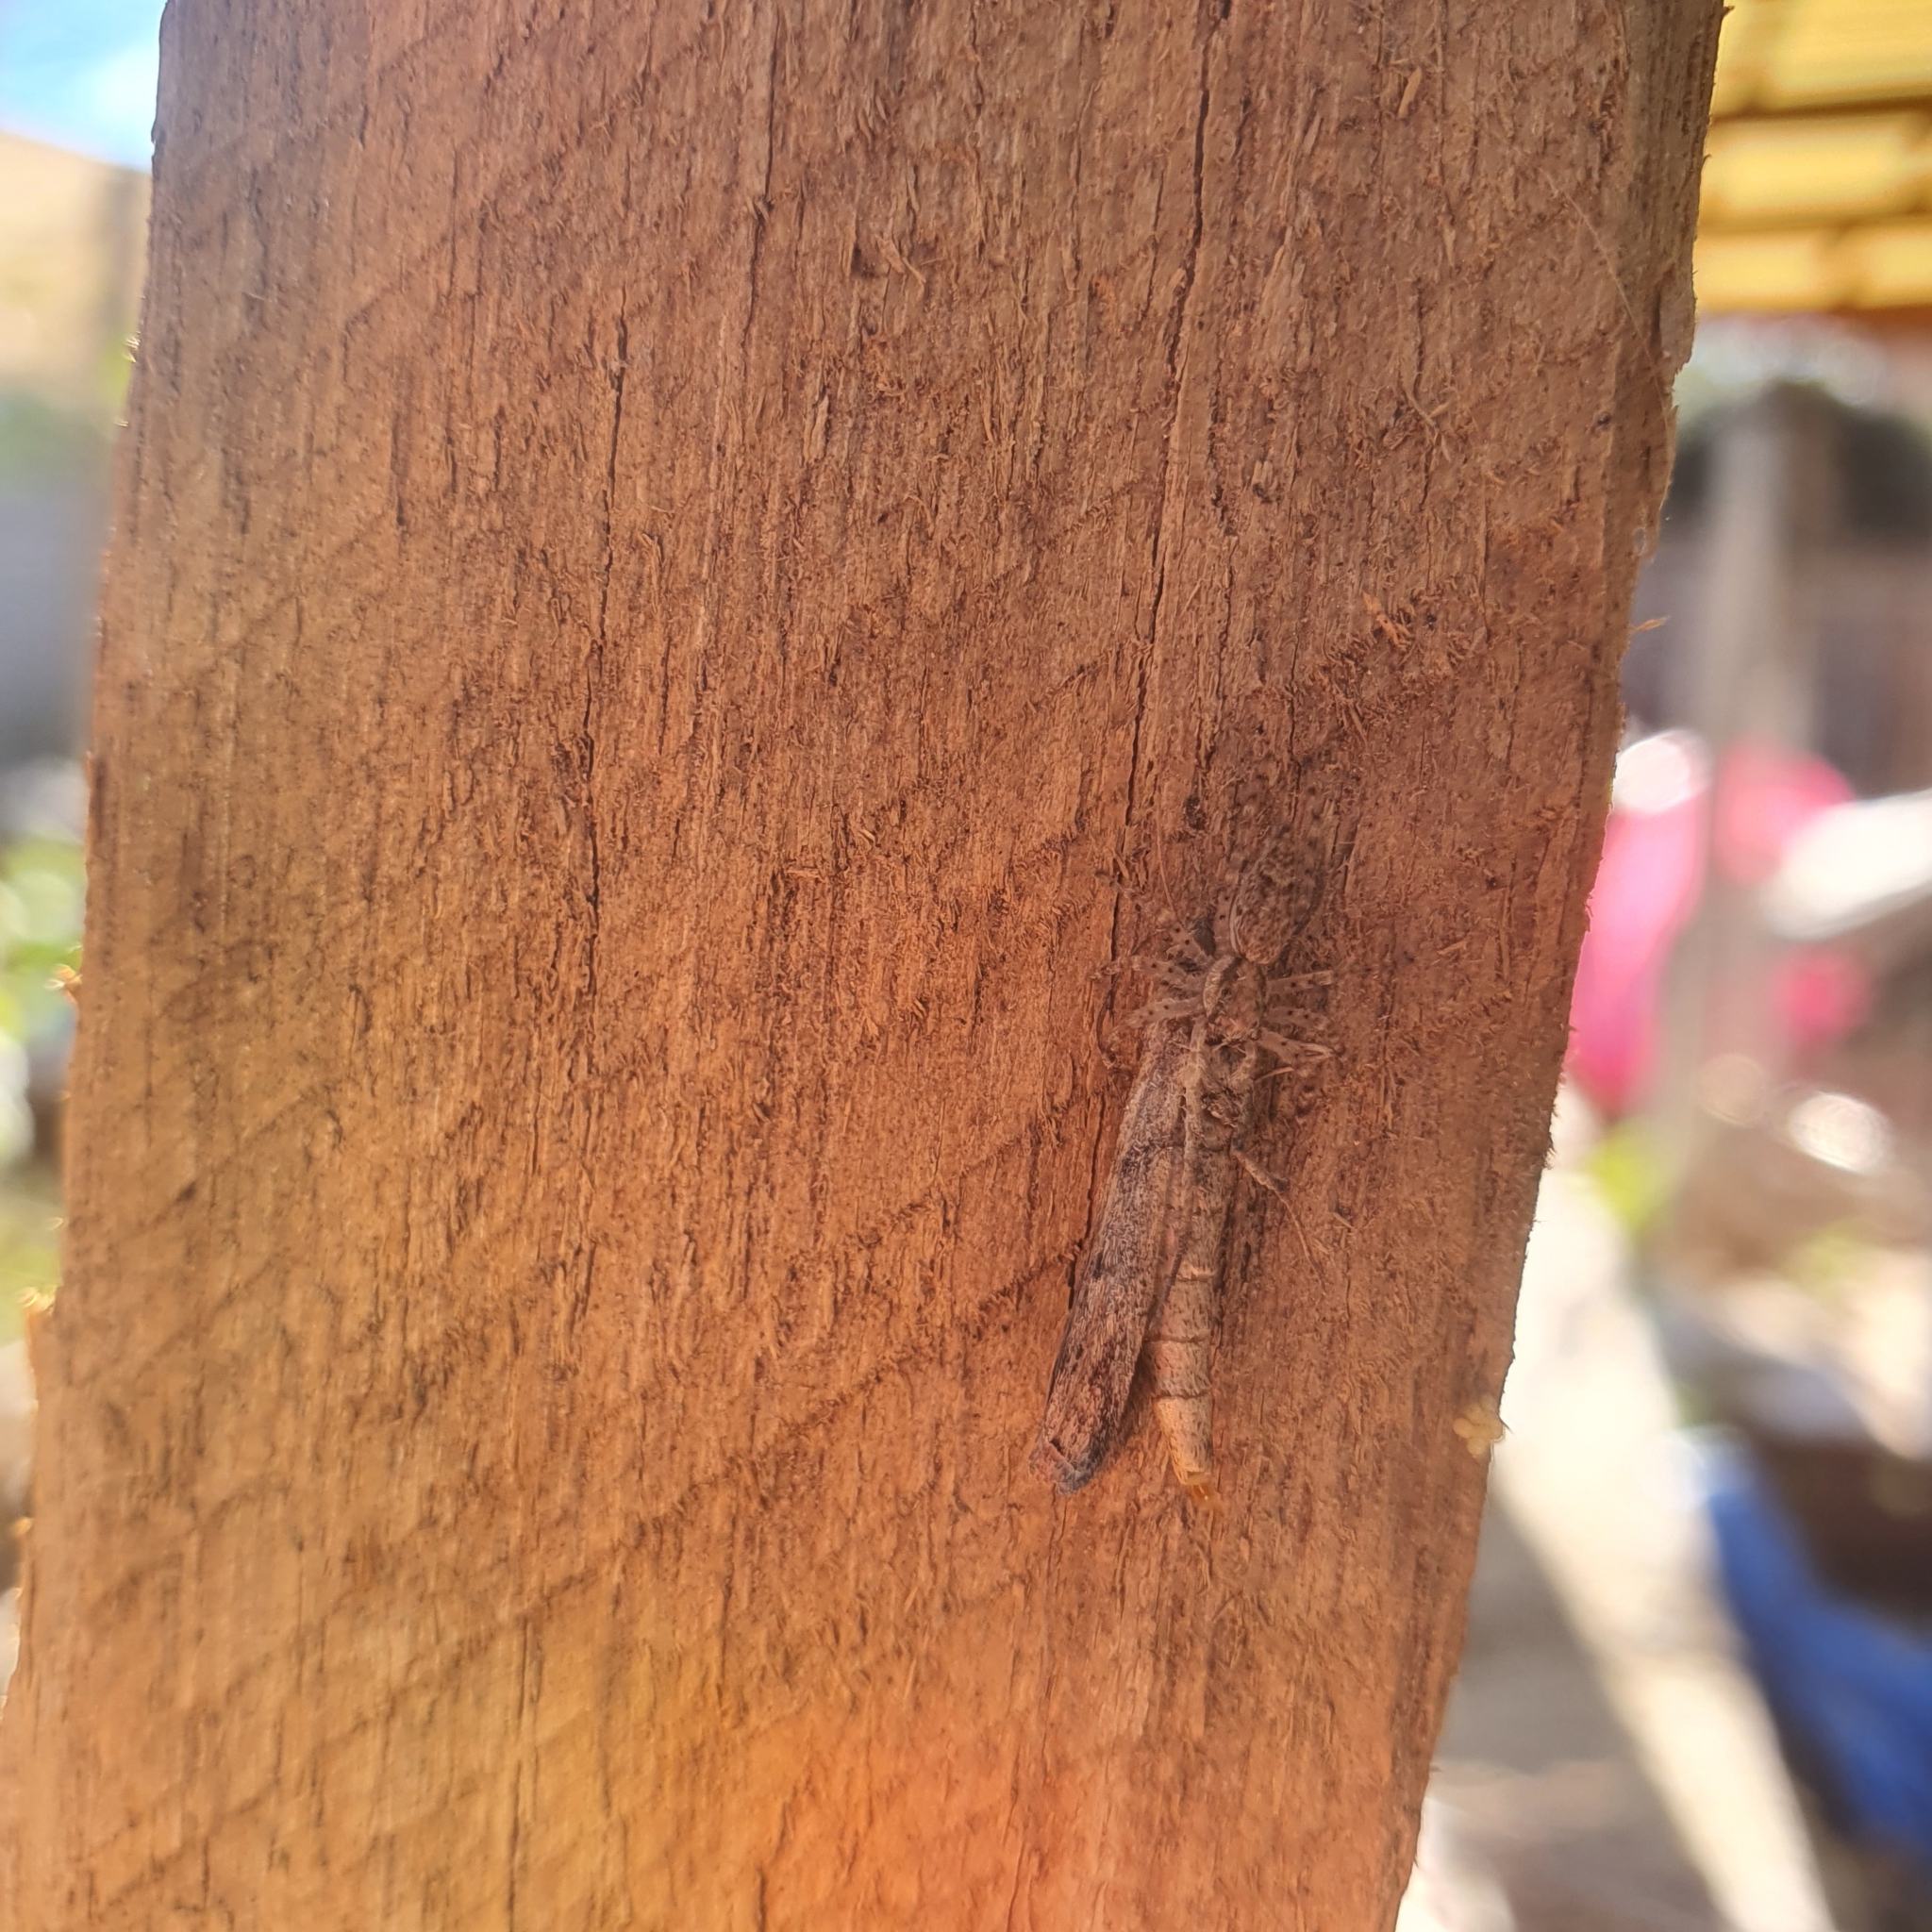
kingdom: Animalia
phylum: Arthropoda
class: Arachnida
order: Araneae
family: Salticidae
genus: Helpis
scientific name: Helpis minitabunda
